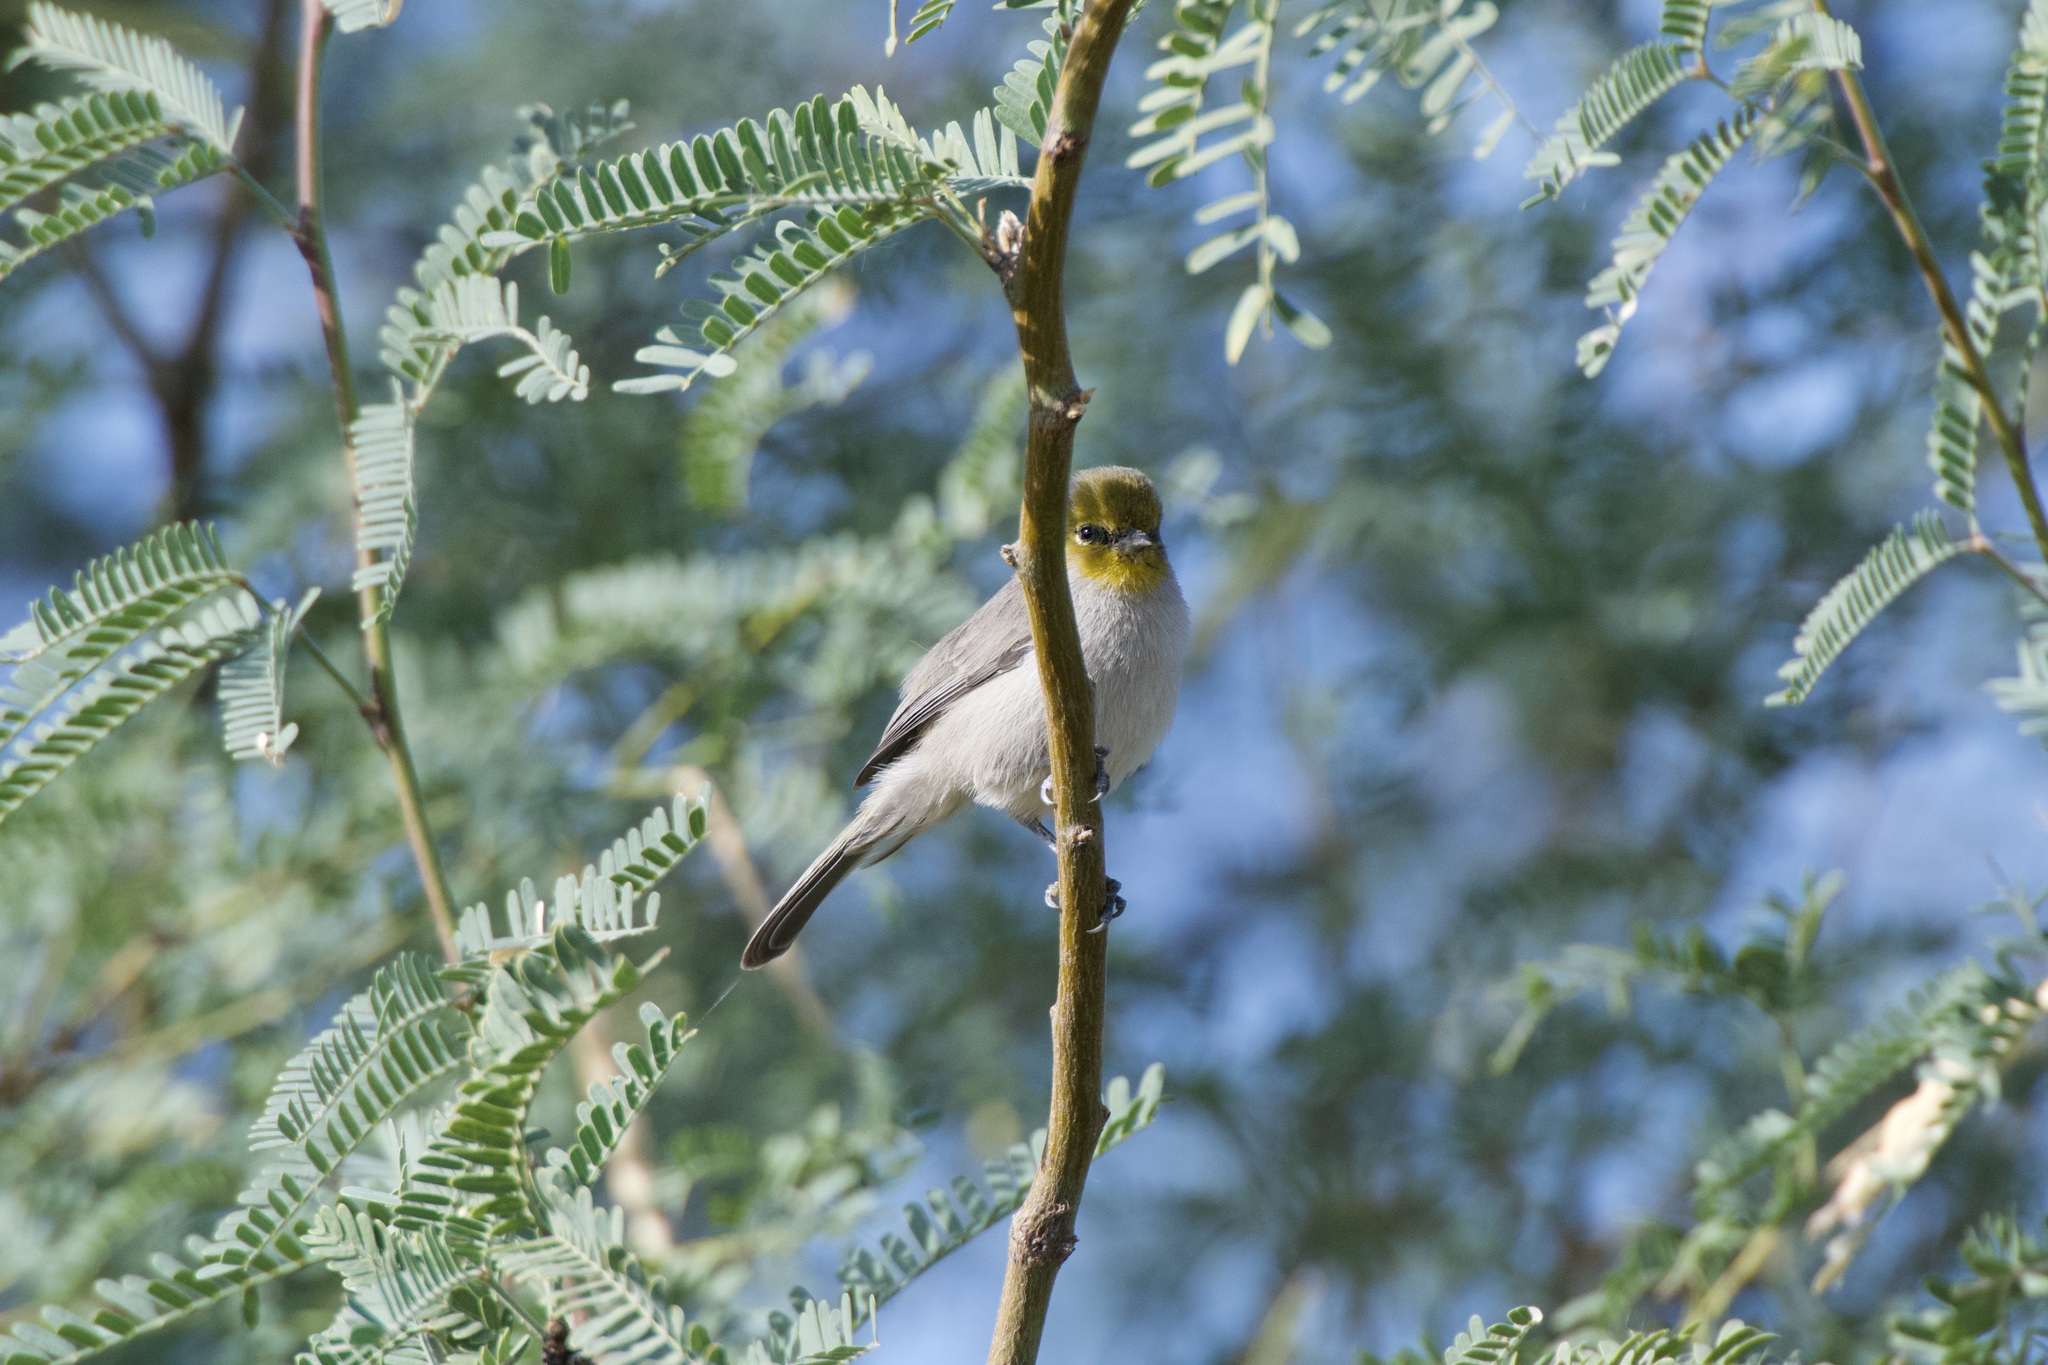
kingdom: Animalia
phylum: Chordata
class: Aves
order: Passeriformes
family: Remizidae
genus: Auriparus
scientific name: Auriparus flaviceps
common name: Verdin
